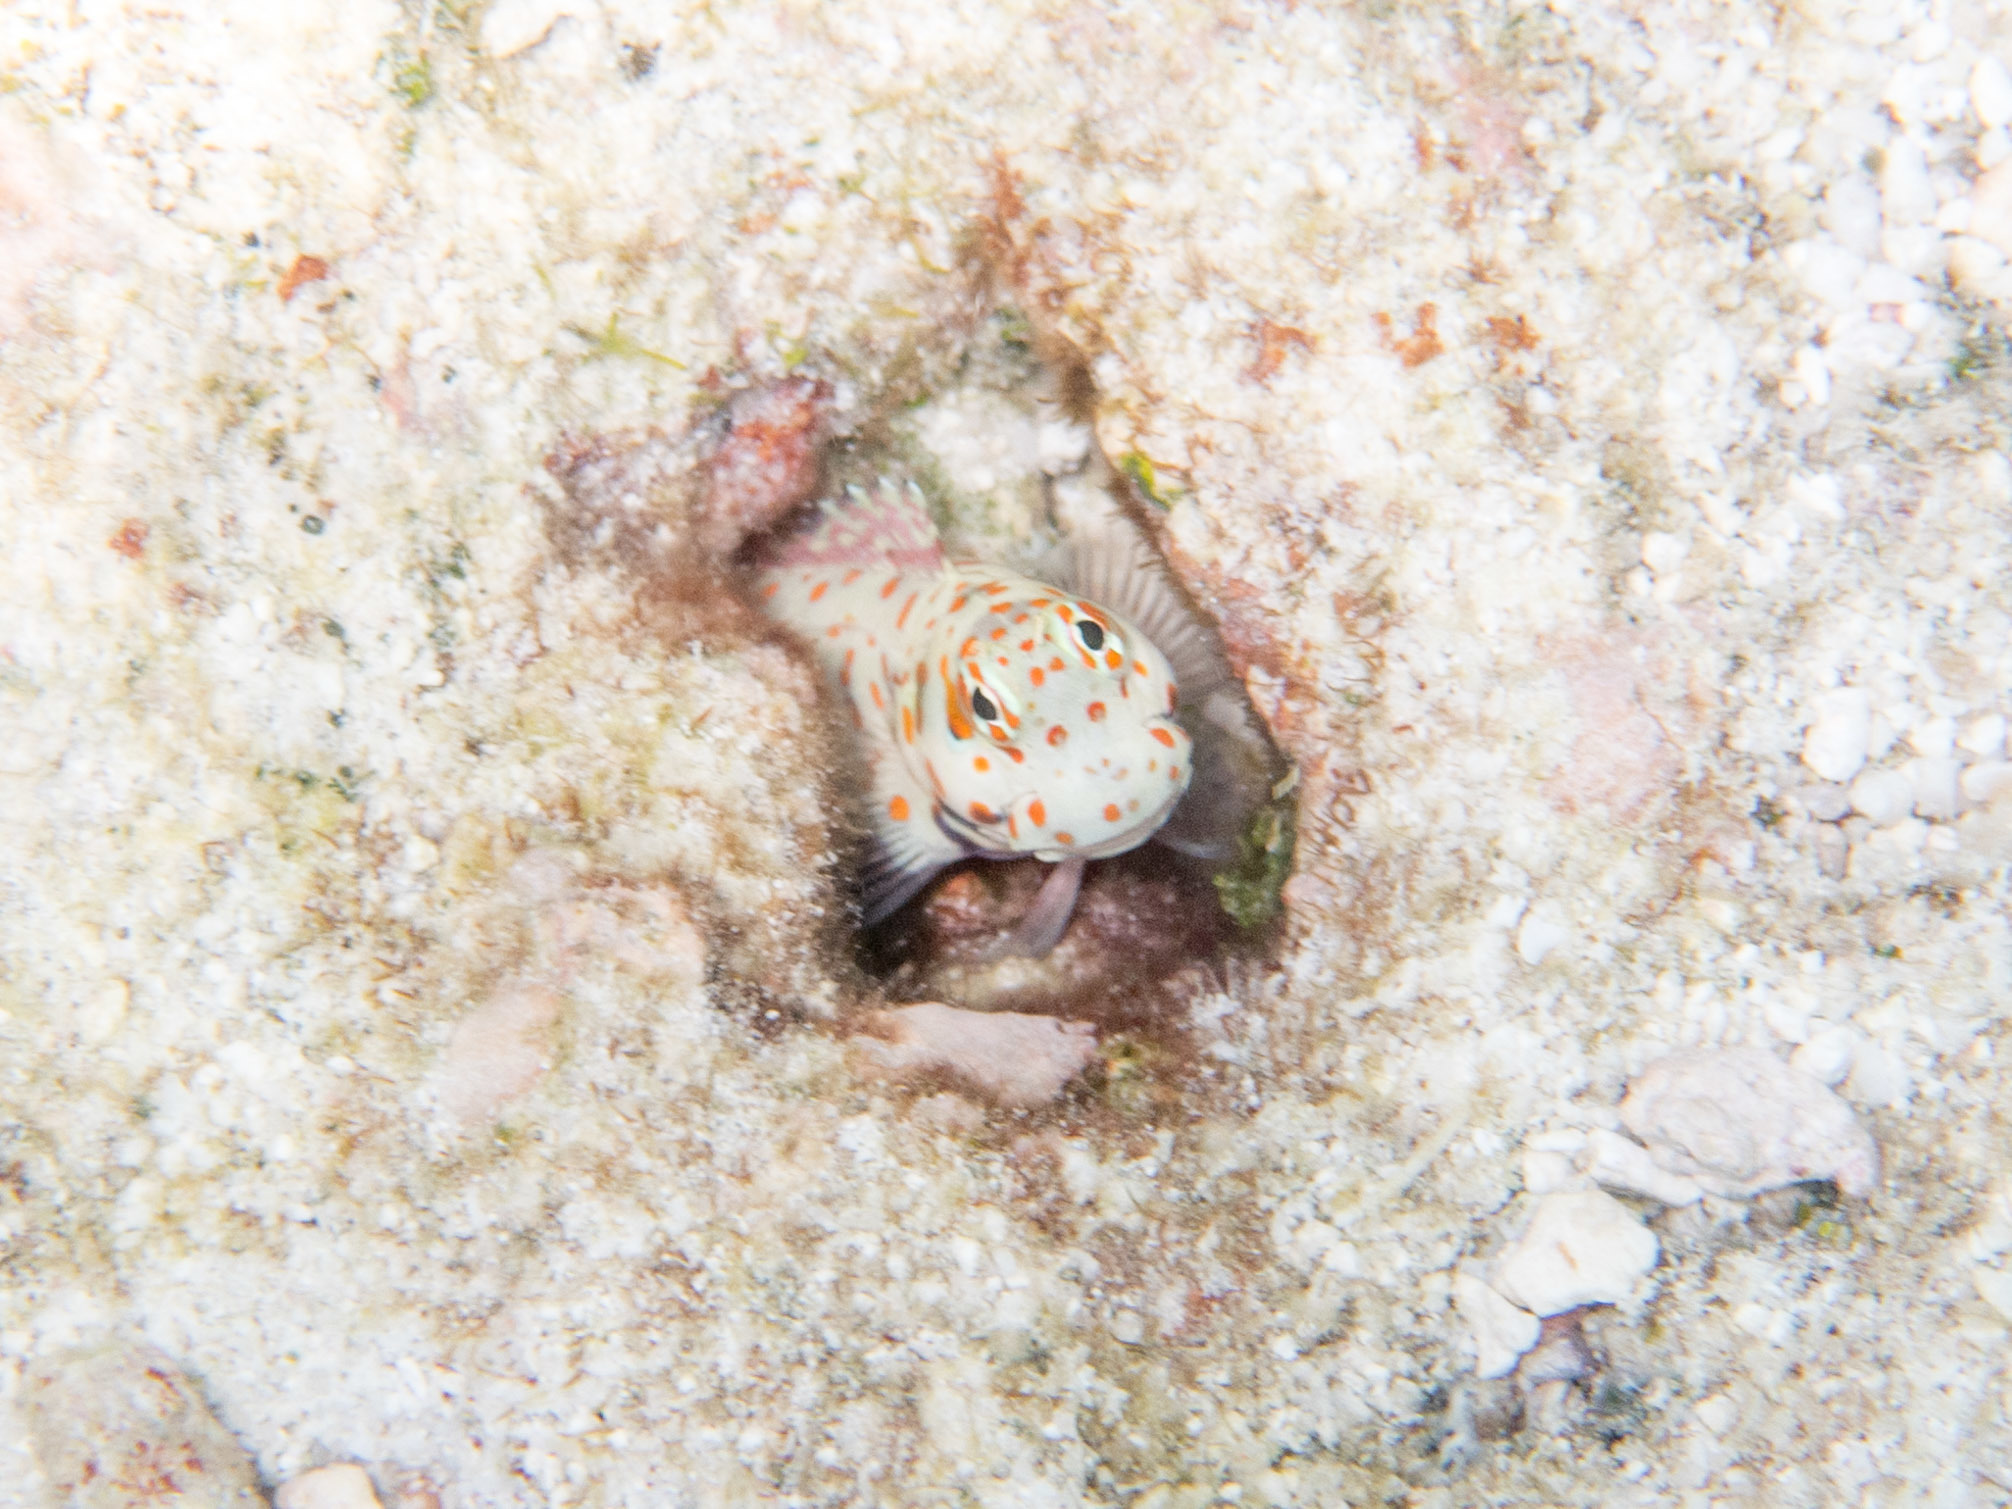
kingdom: Animalia
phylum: Chordata
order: Perciformes
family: Blenniidae
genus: Blenniella
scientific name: Blenniella chrysospilos
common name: Orange-spotted blenny
